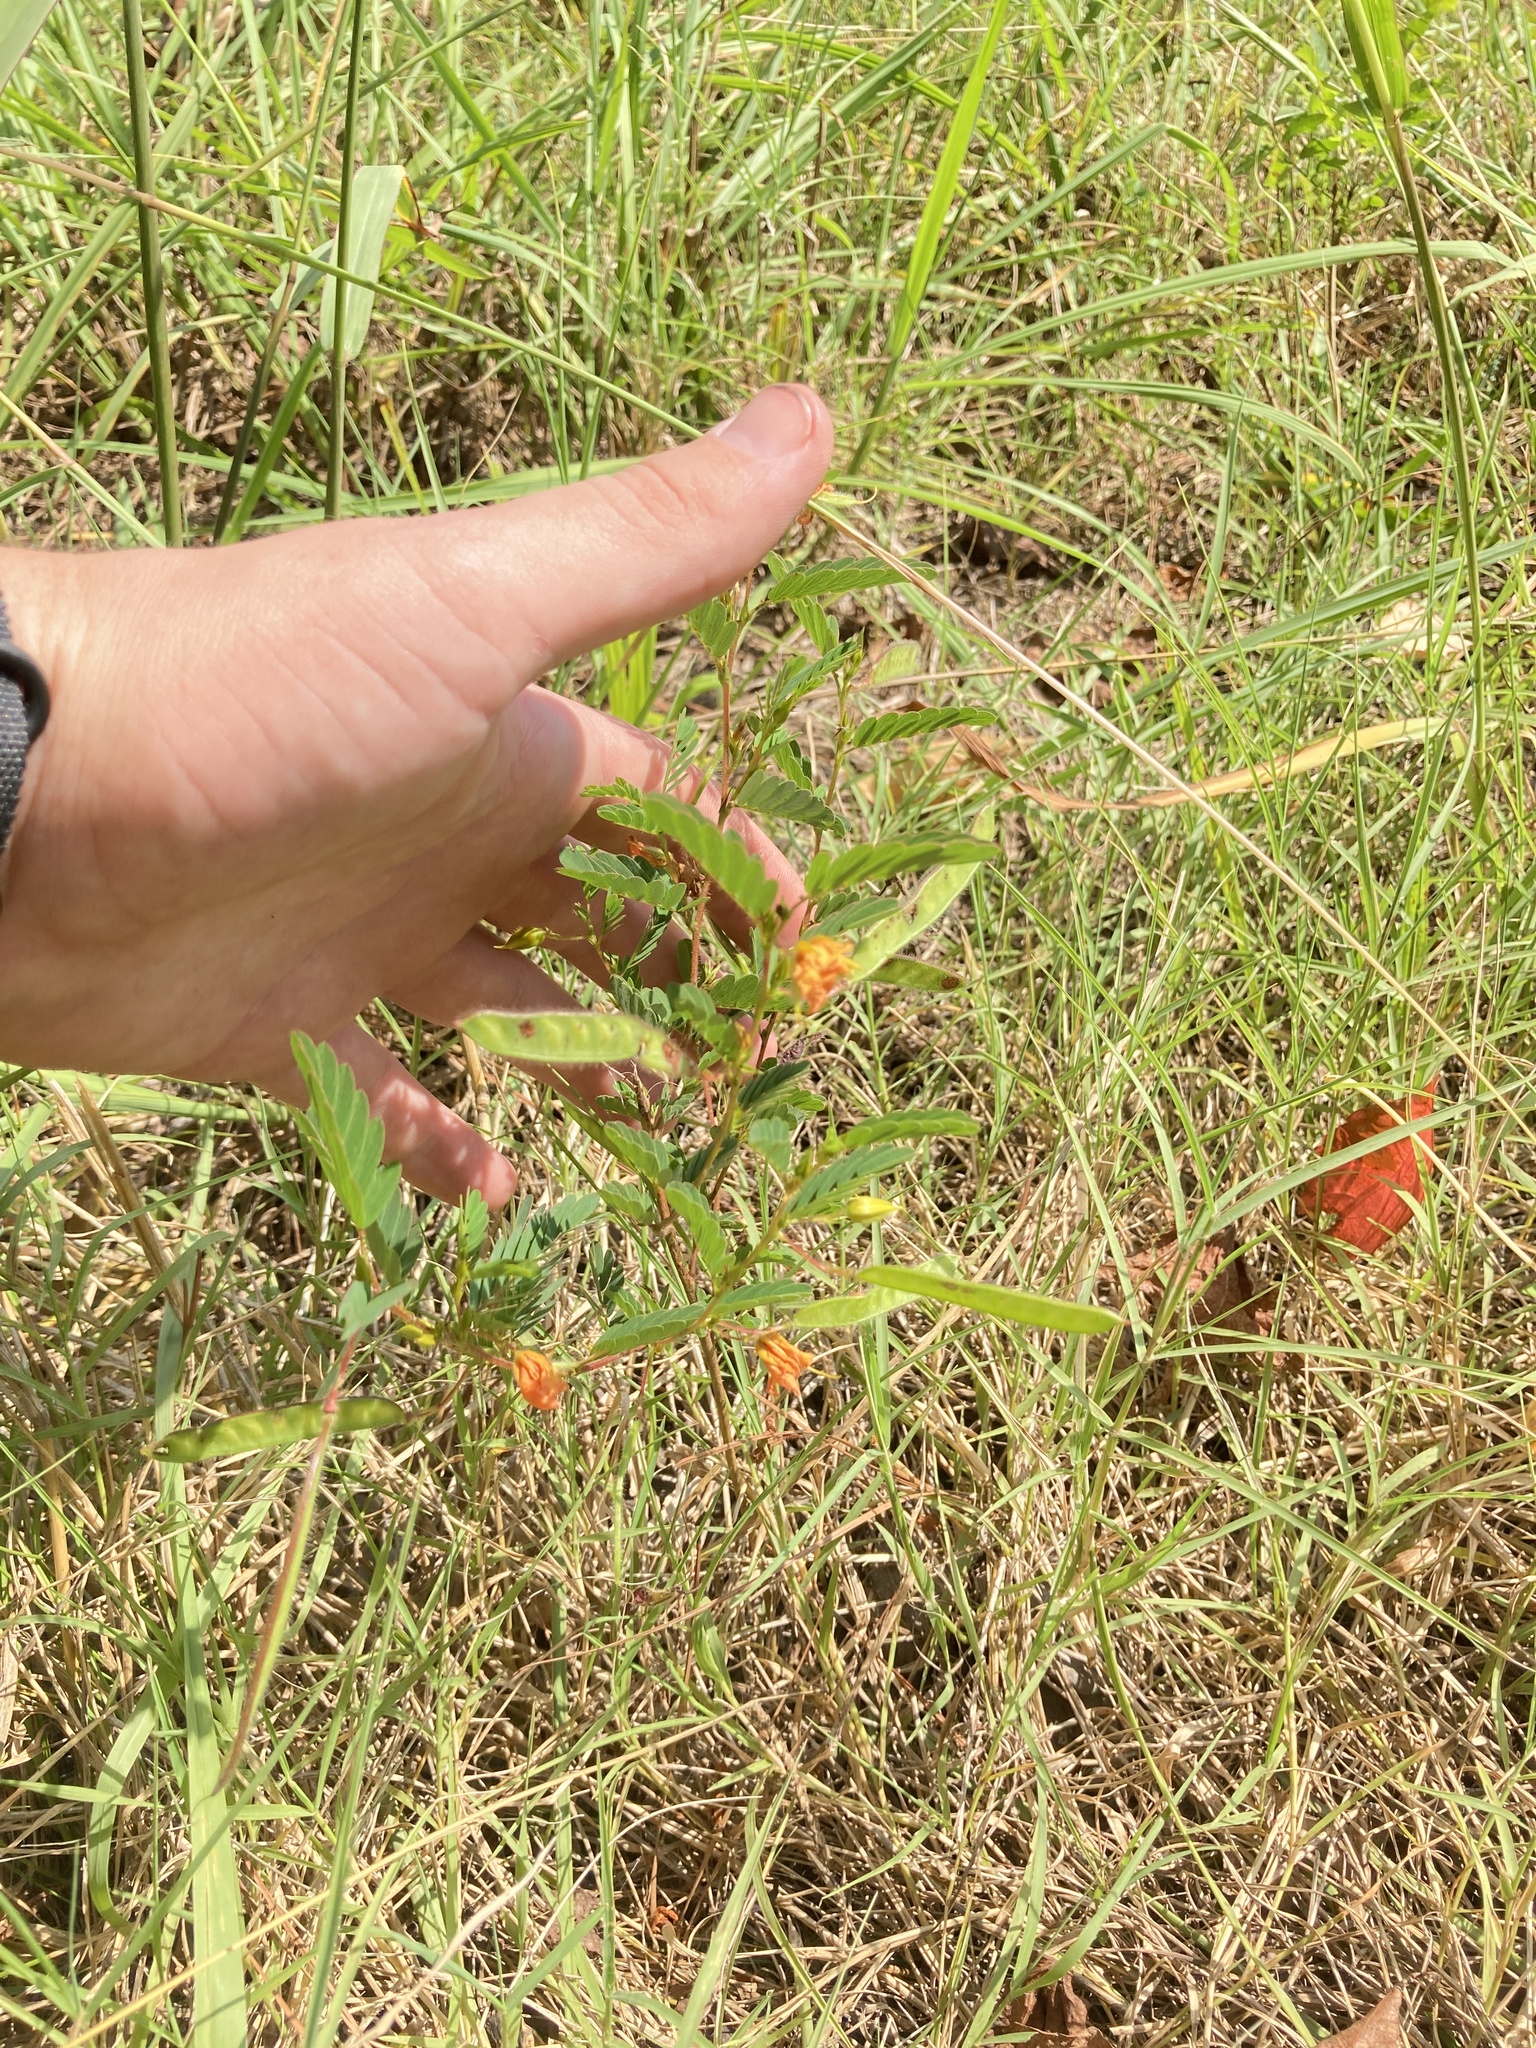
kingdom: Plantae
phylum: Tracheophyta
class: Magnoliopsida
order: Fabales
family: Fabaceae
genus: Chamaecrista
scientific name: Chamaecrista fasciculata
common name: Golden cassia
